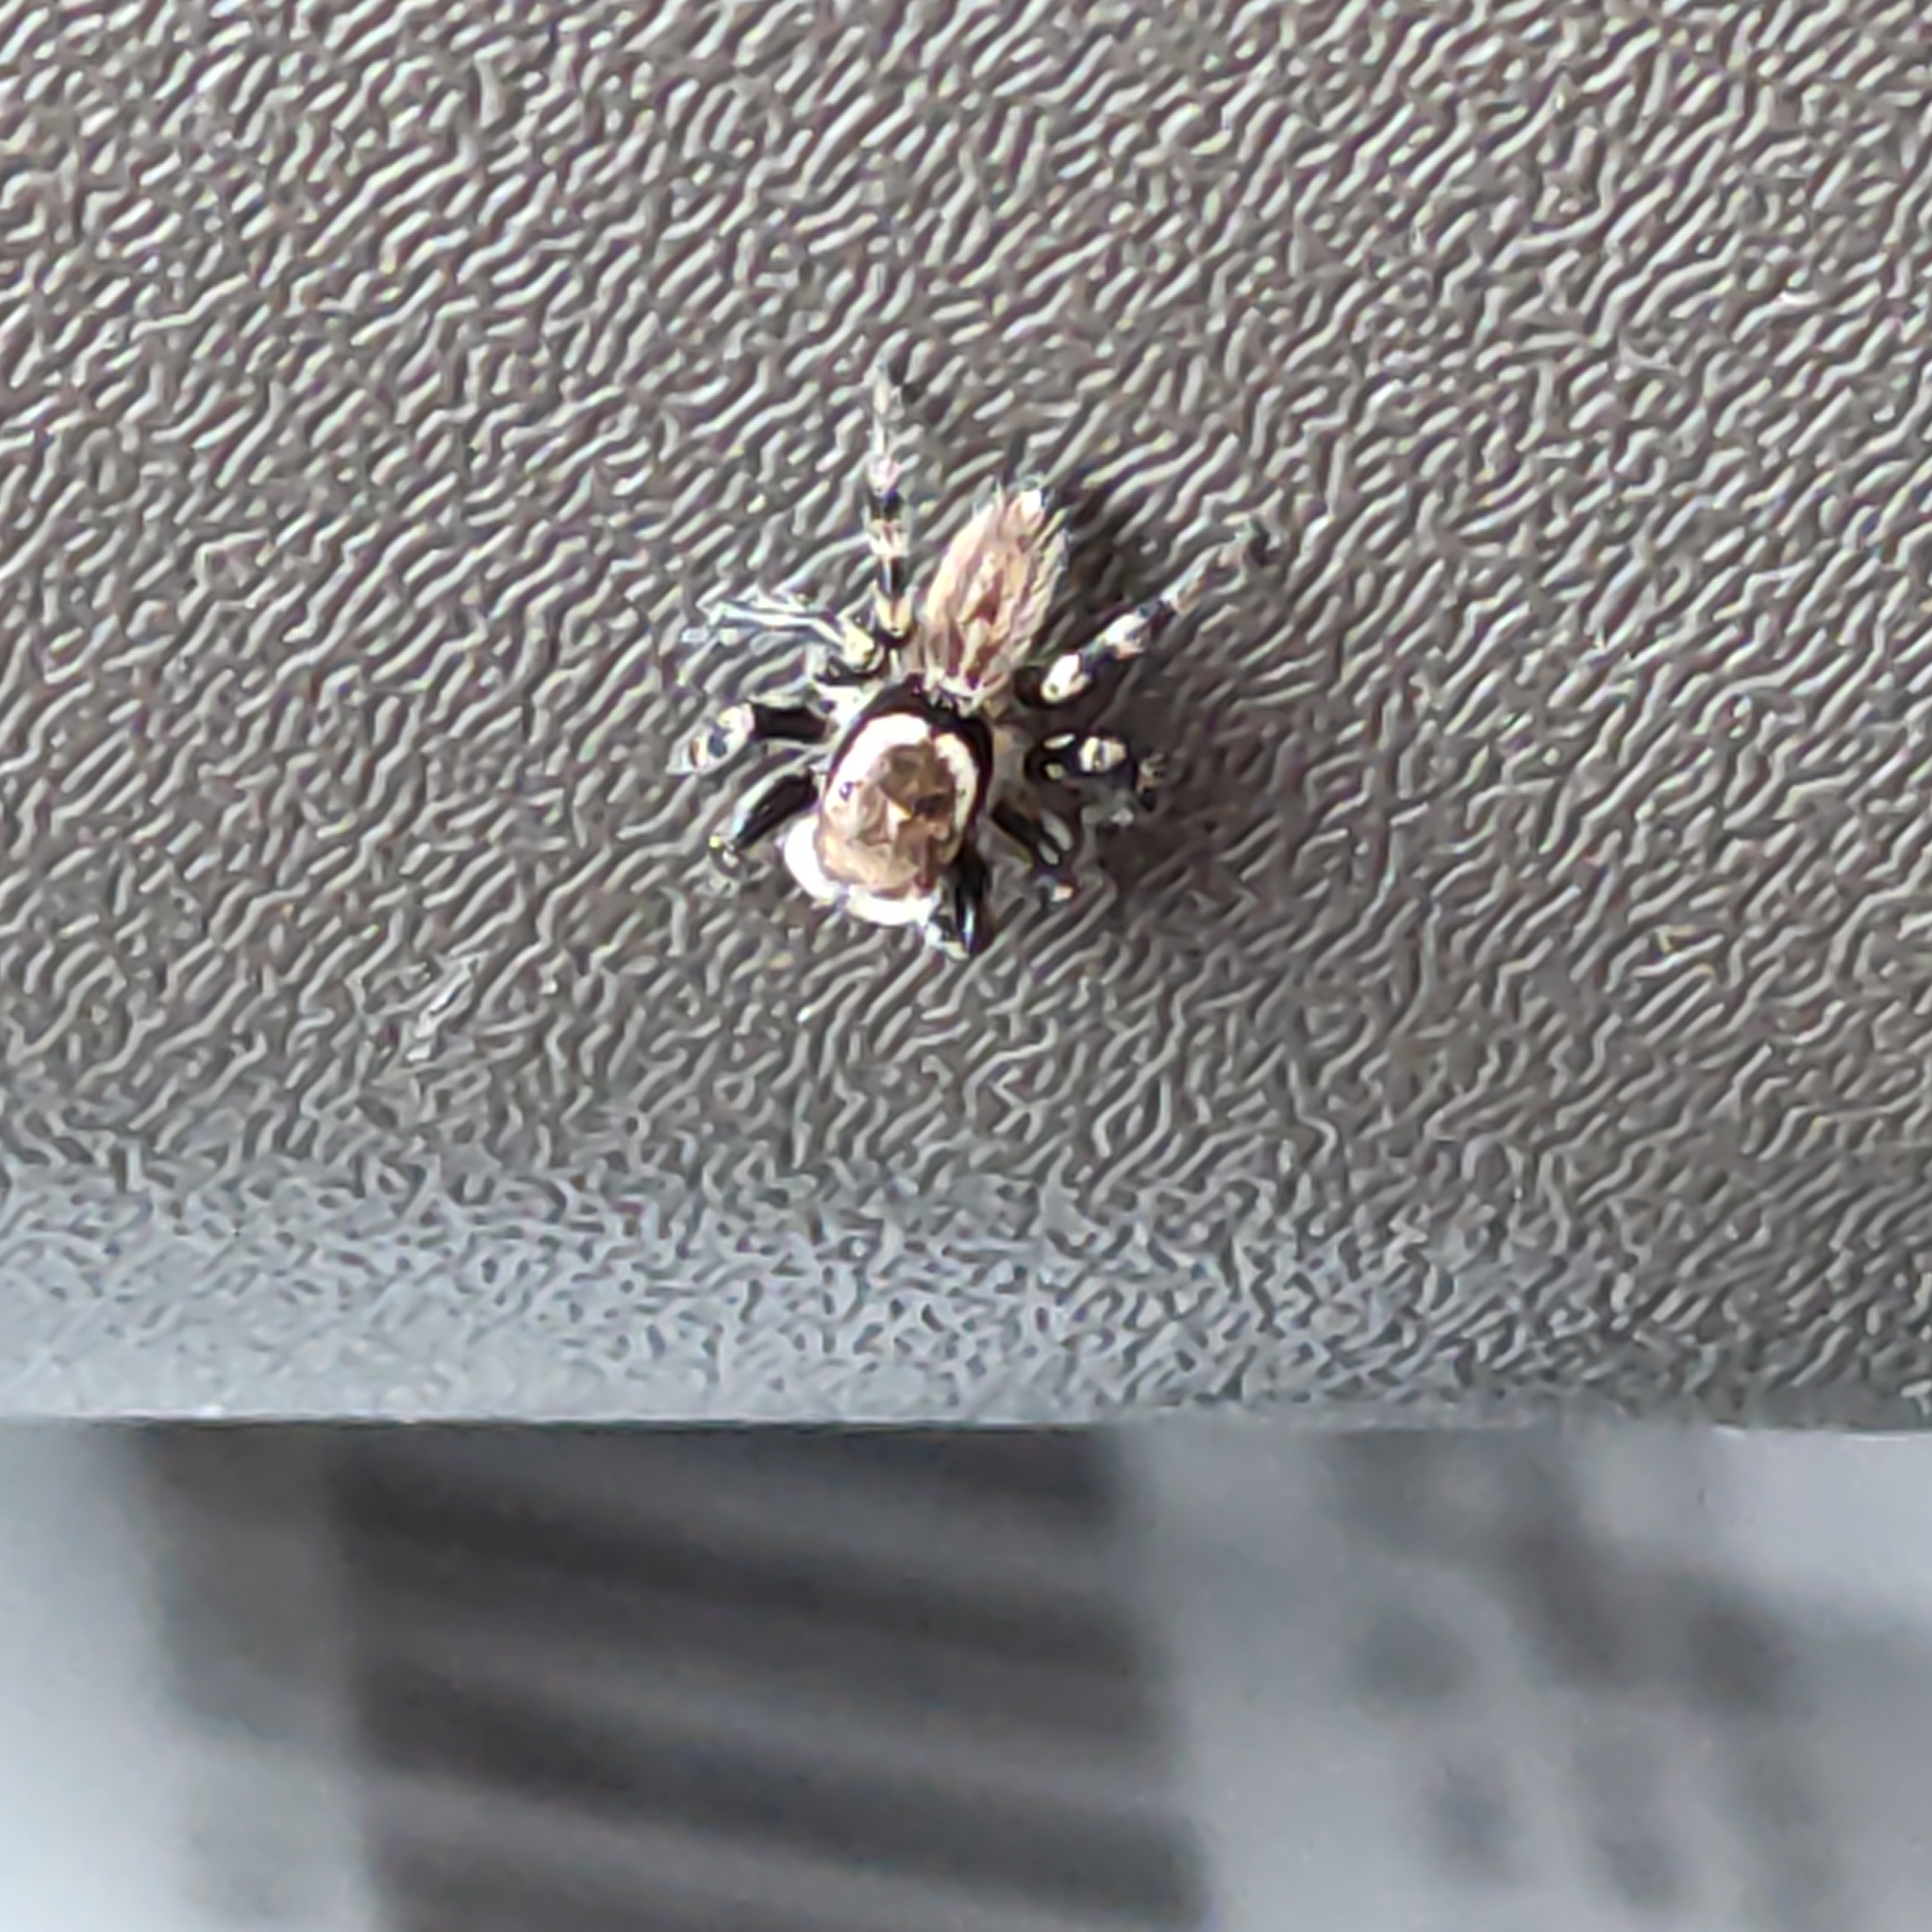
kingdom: Animalia
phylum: Arthropoda
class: Arachnida
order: Araneae
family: Salticidae
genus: Maratus
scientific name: Maratus griseus
